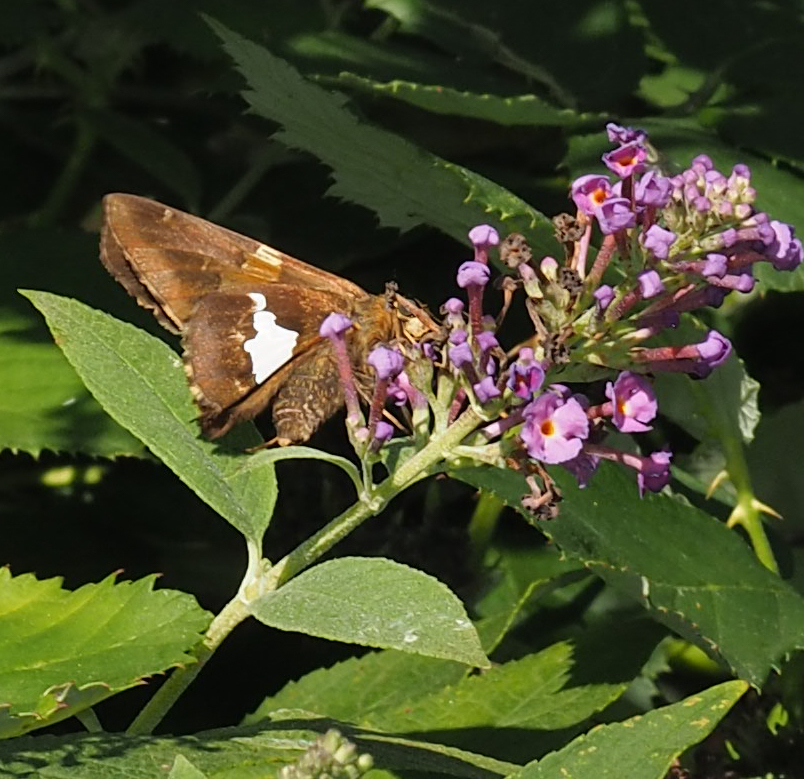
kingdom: Animalia
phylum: Arthropoda
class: Insecta
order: Lepidoptera
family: Hesperiidae
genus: Epargyreus
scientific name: Epargyreus clarus
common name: Silver-spotted skipper
